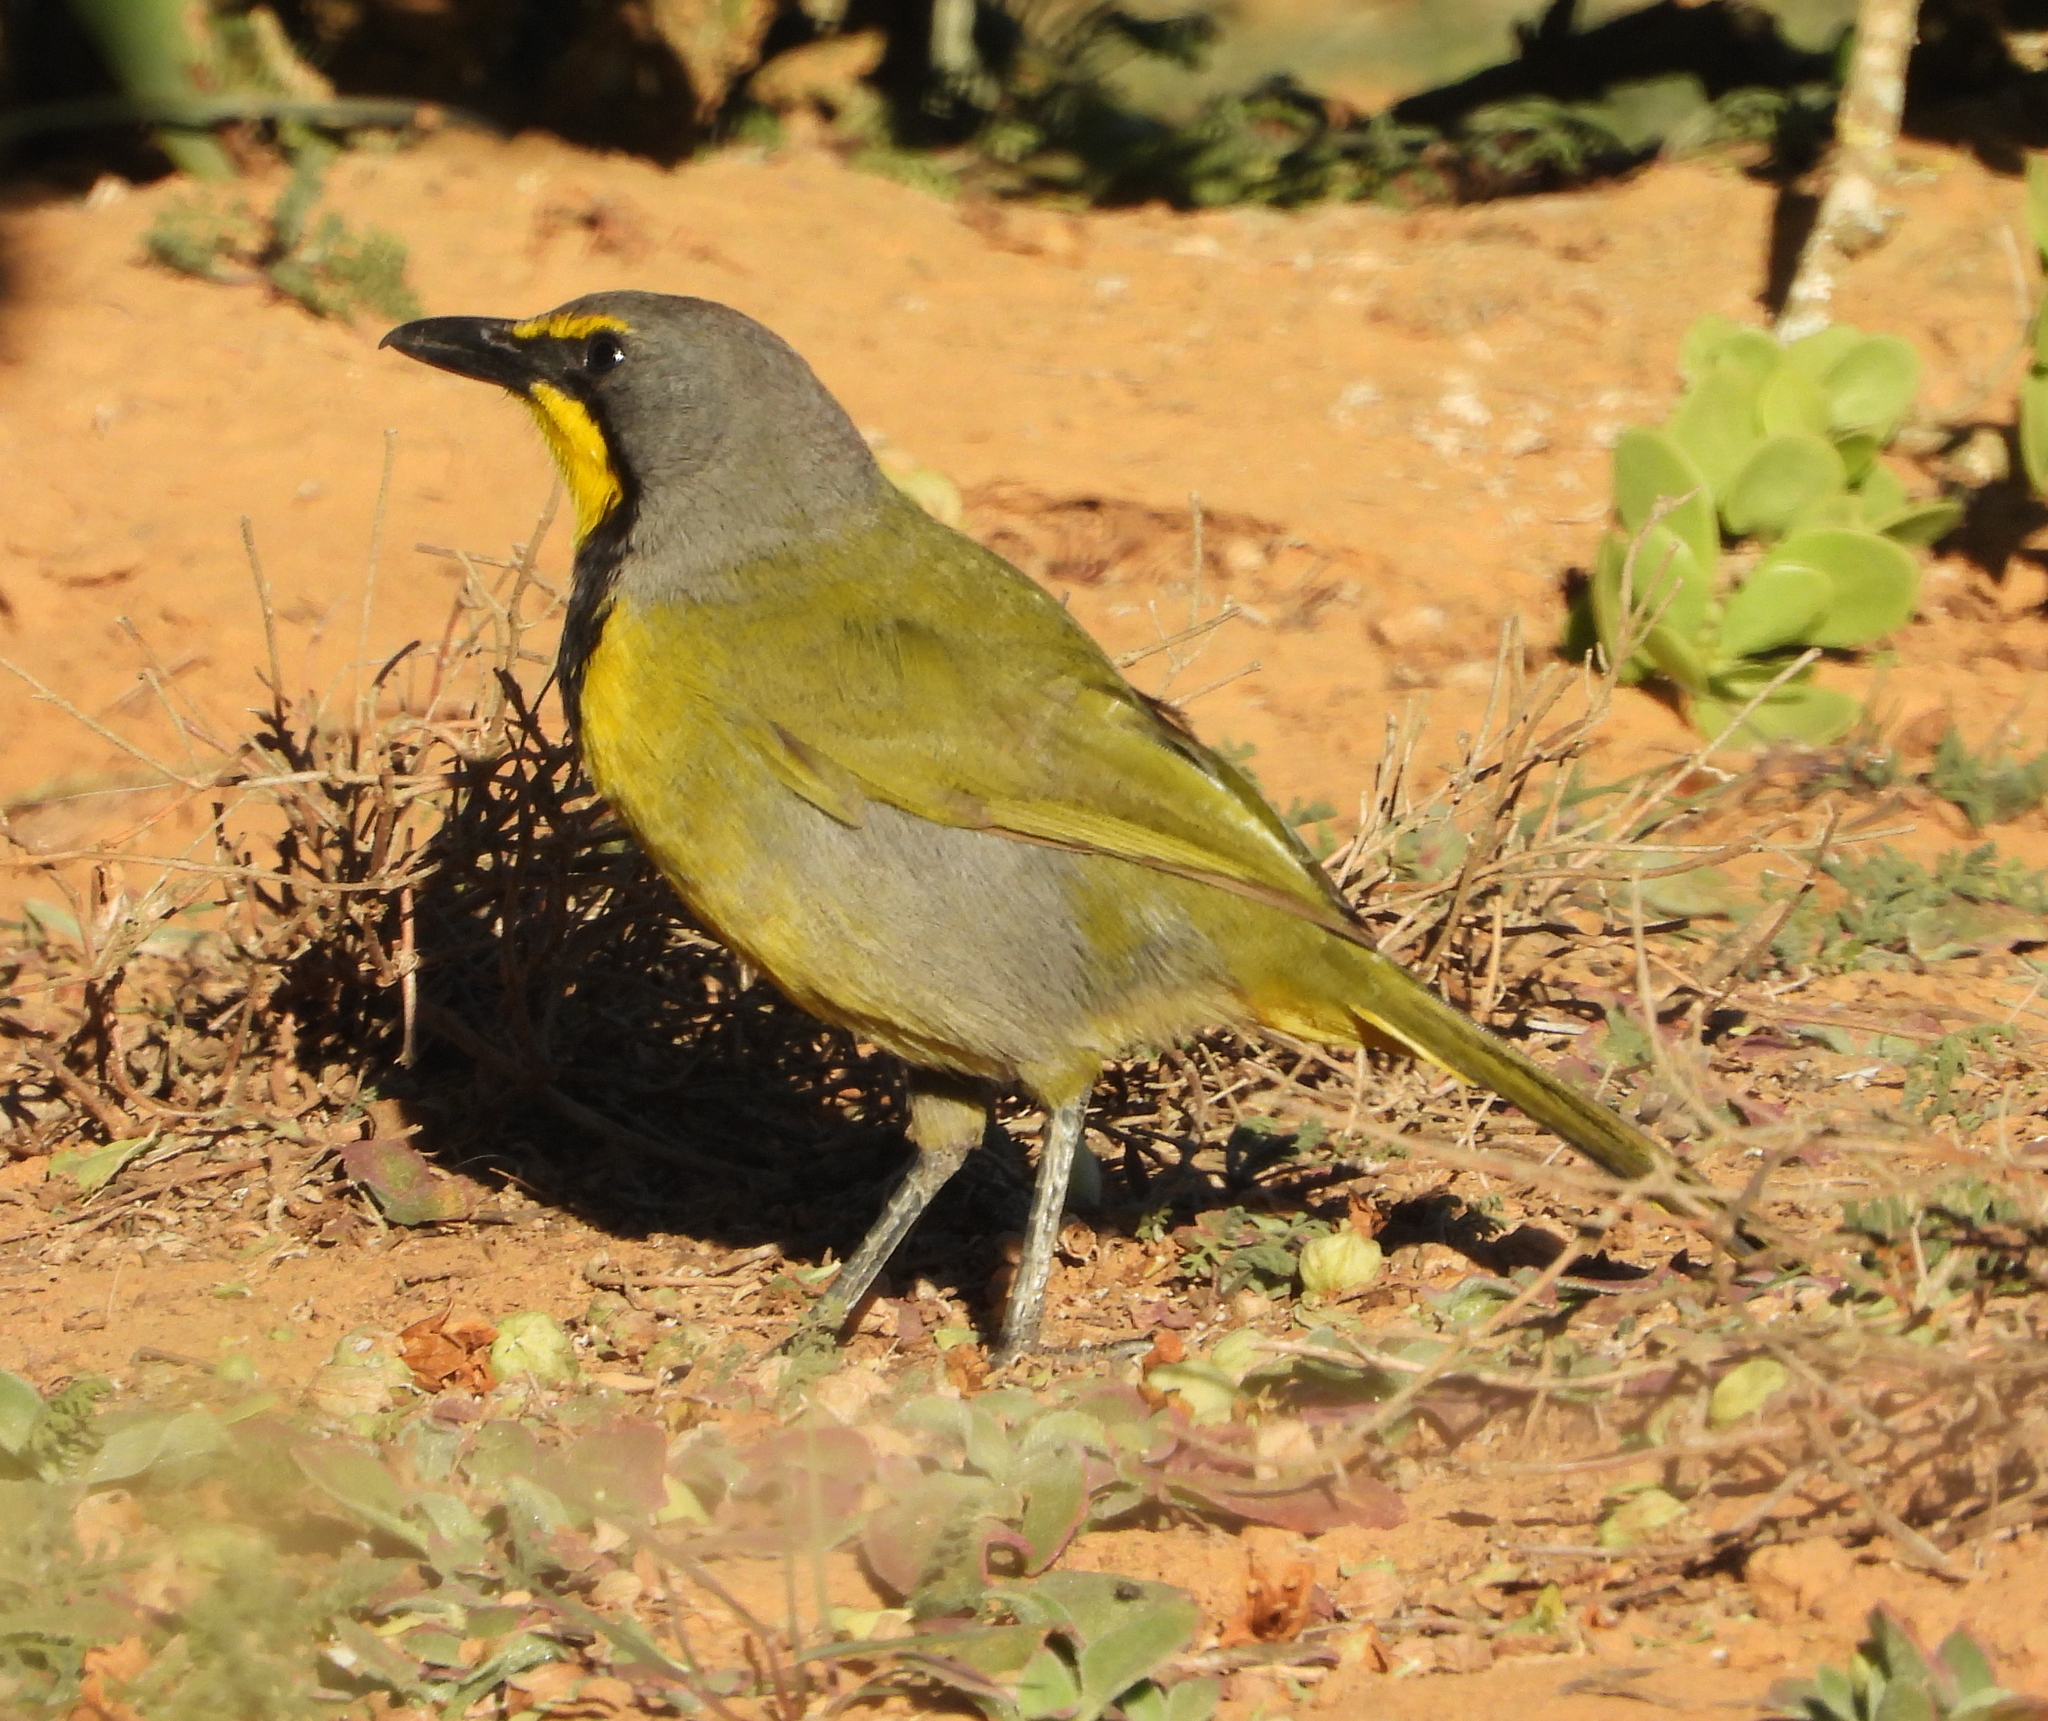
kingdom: Animalia
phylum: Chordata
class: Aves
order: Passeriformes
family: Malaconotidae
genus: Telophorus
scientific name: Telophorus zeylonus
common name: Bokmakierie
